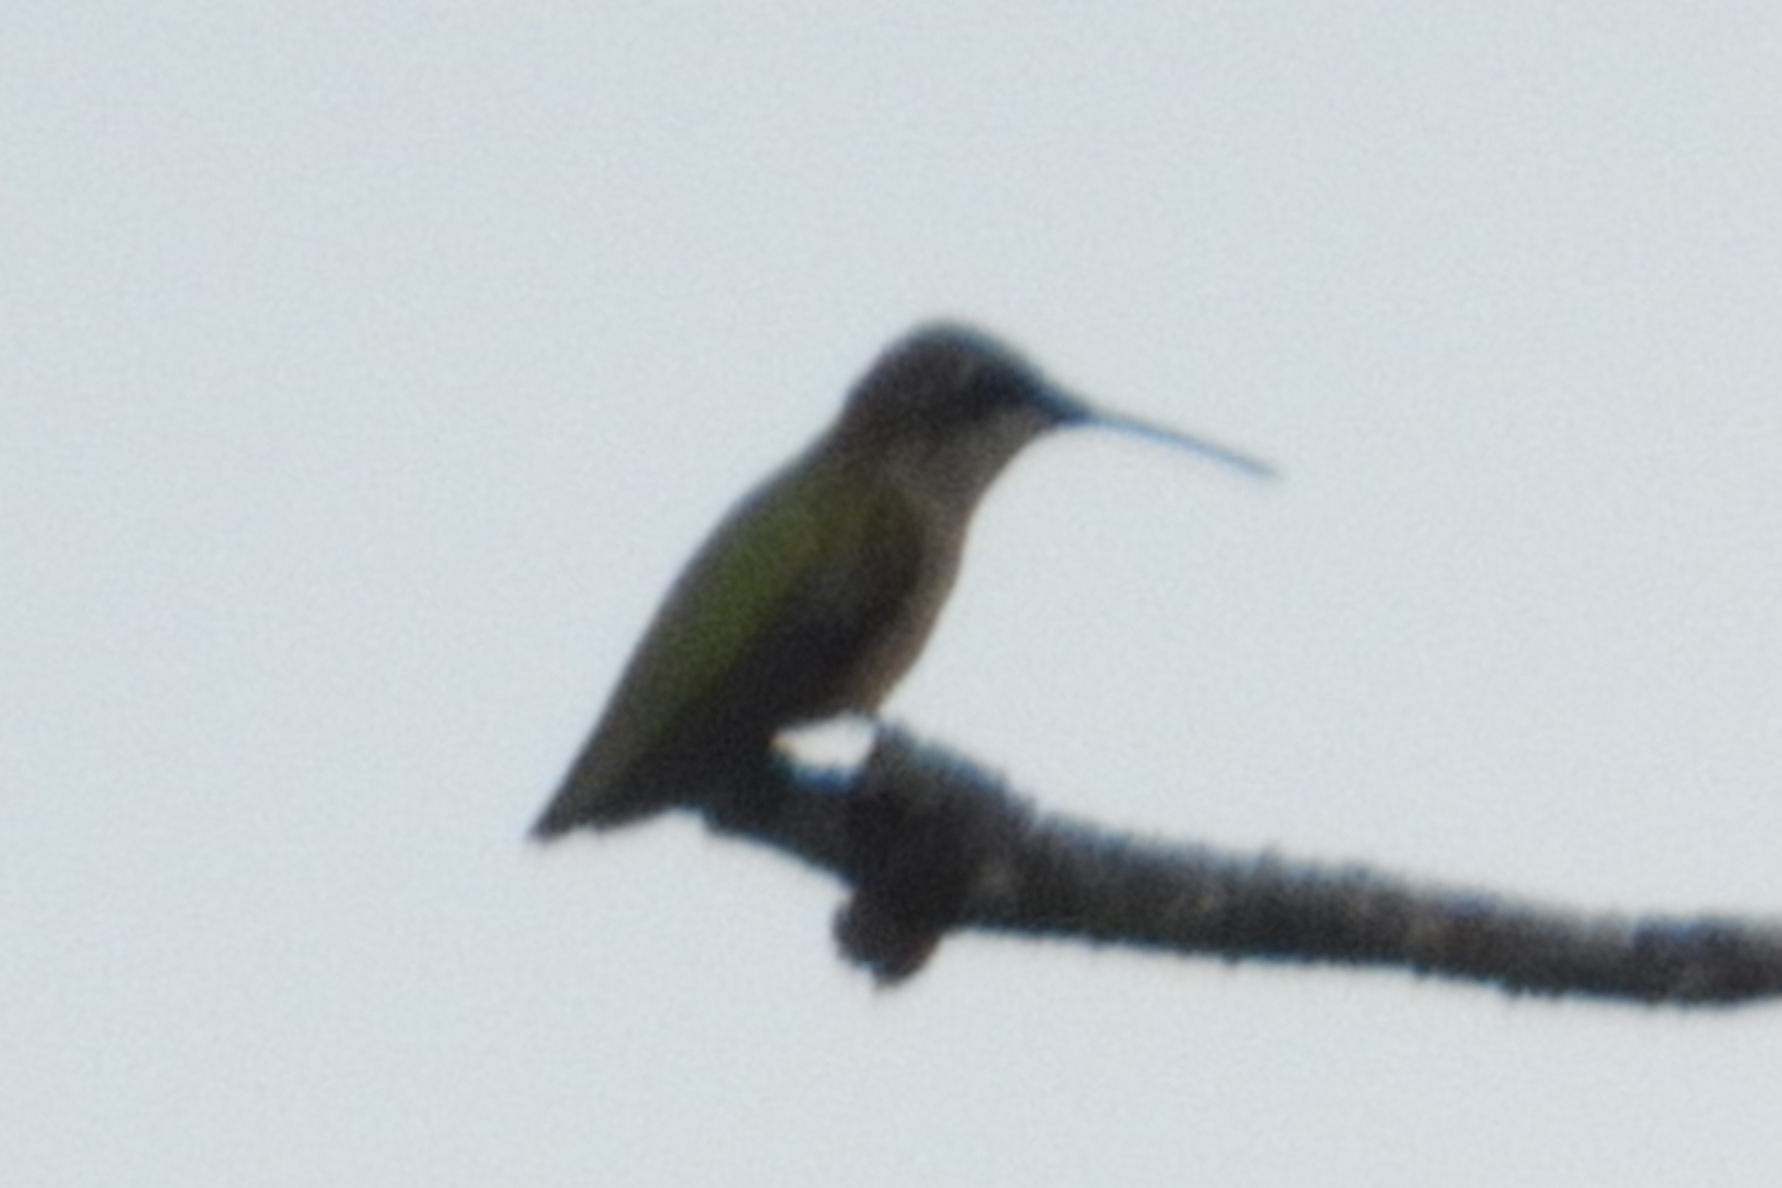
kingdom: Animalia
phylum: Chordata
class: Aves
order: Apodiformes
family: Trochilidae
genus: Archilochus
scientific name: Archilochus colubris
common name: Ruby-throated hummingbird
